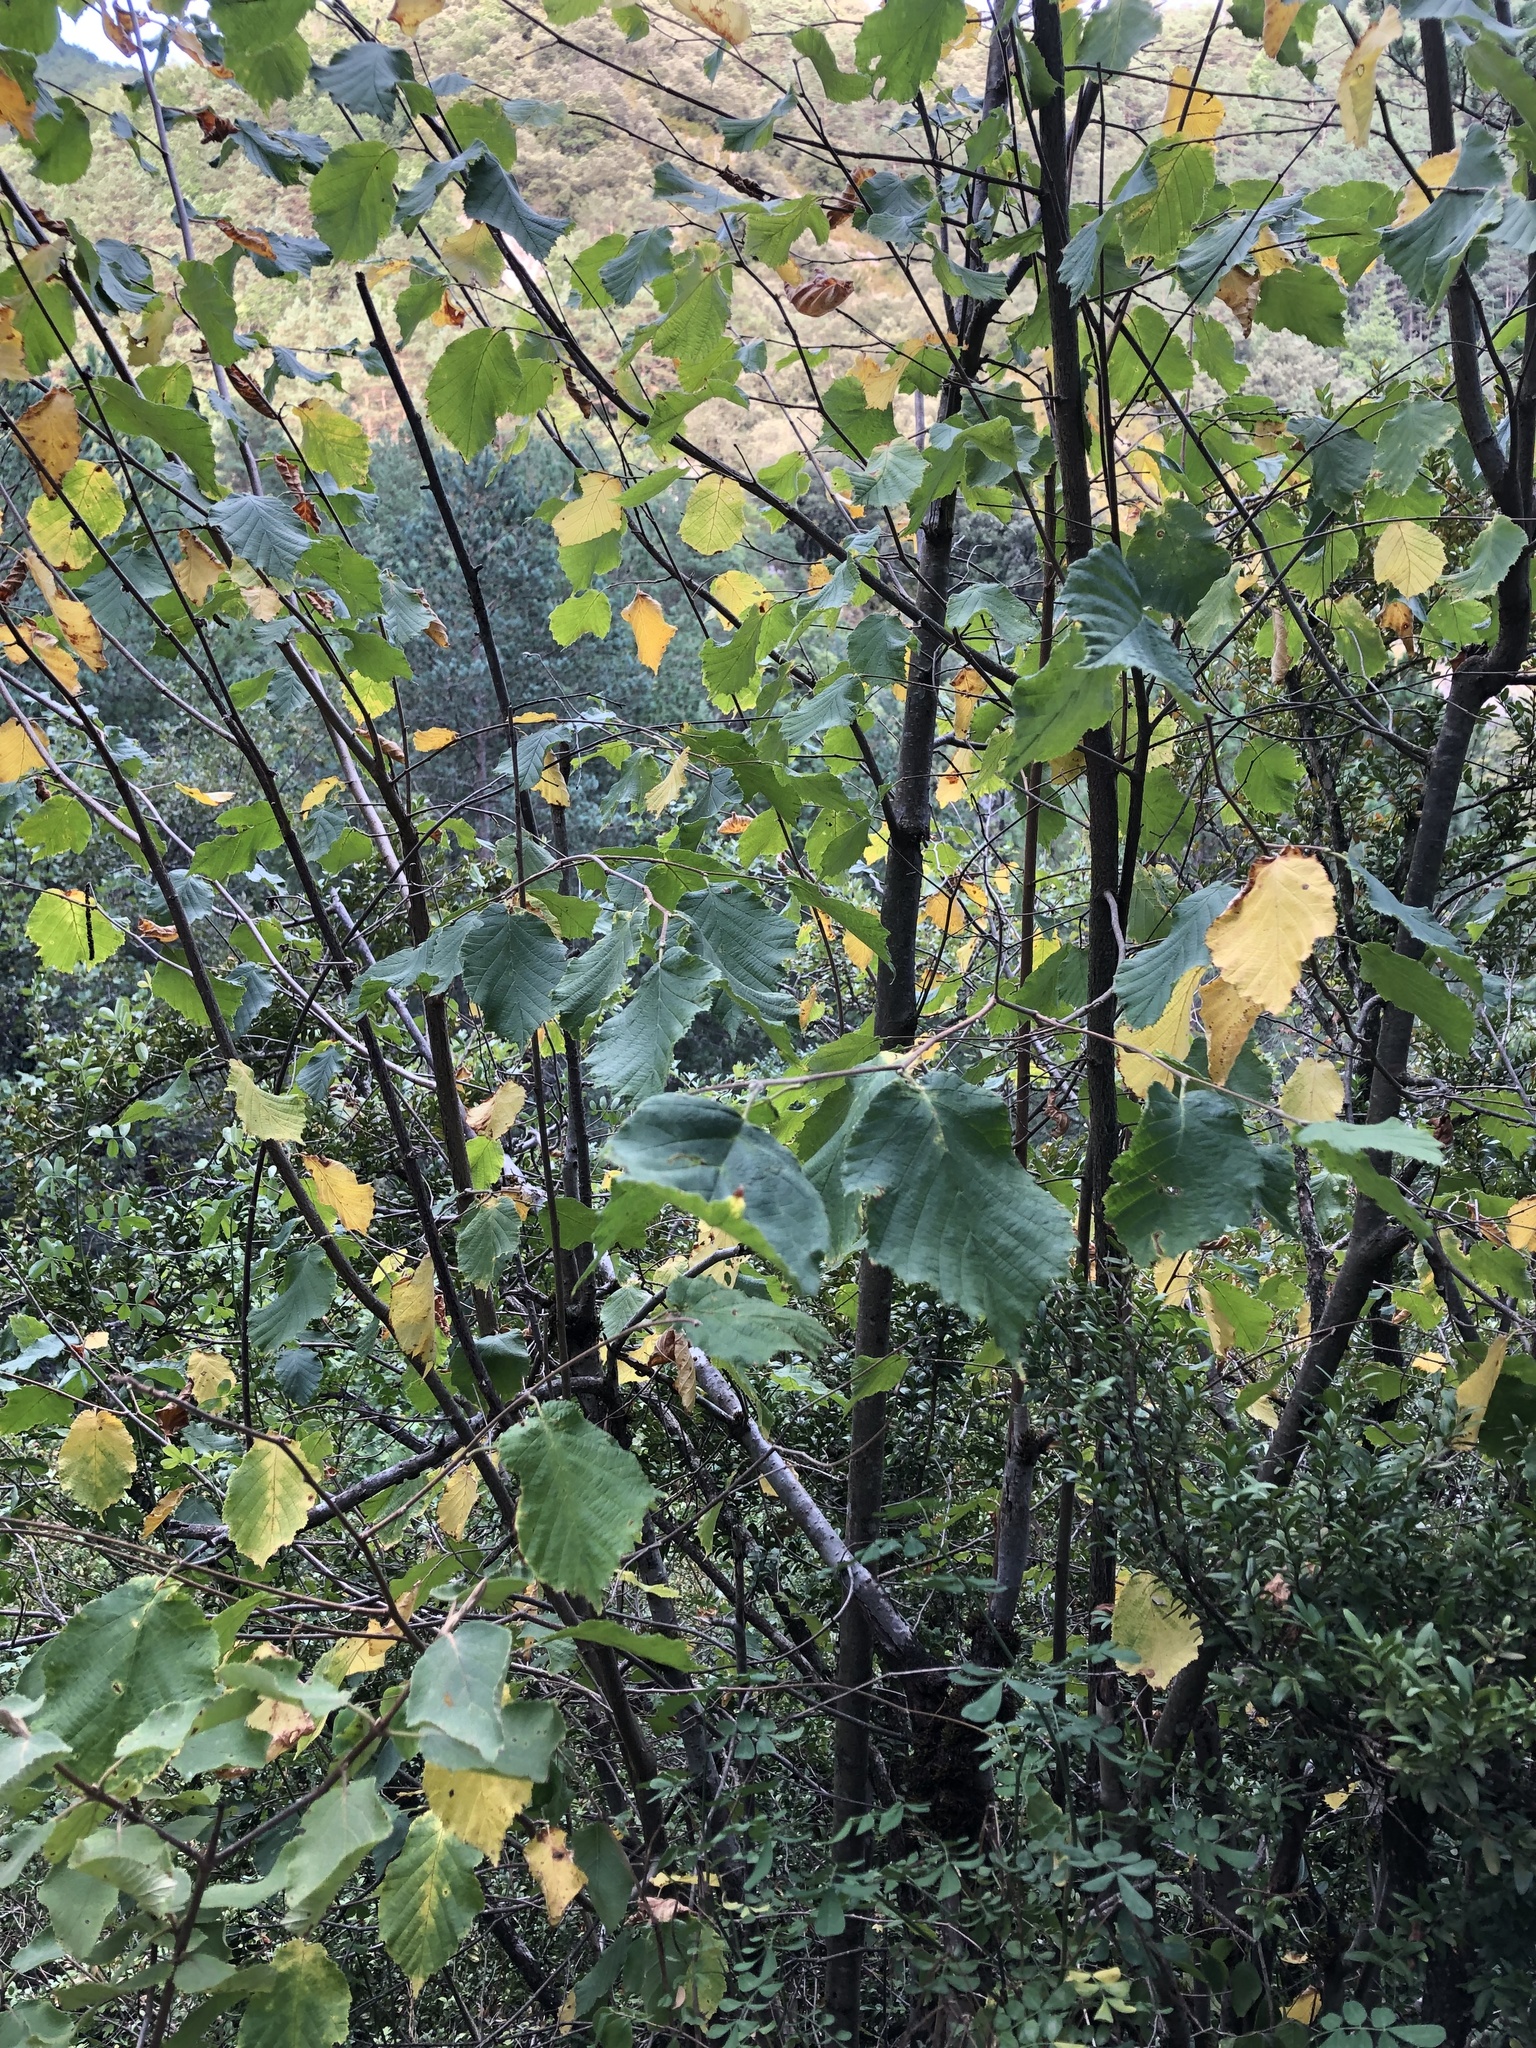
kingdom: Plantae
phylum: Tracheophyta
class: Magnoliopsida
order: Fagales
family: Betulaceae
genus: Corylus
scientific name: Corylus avellana
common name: European hazel
